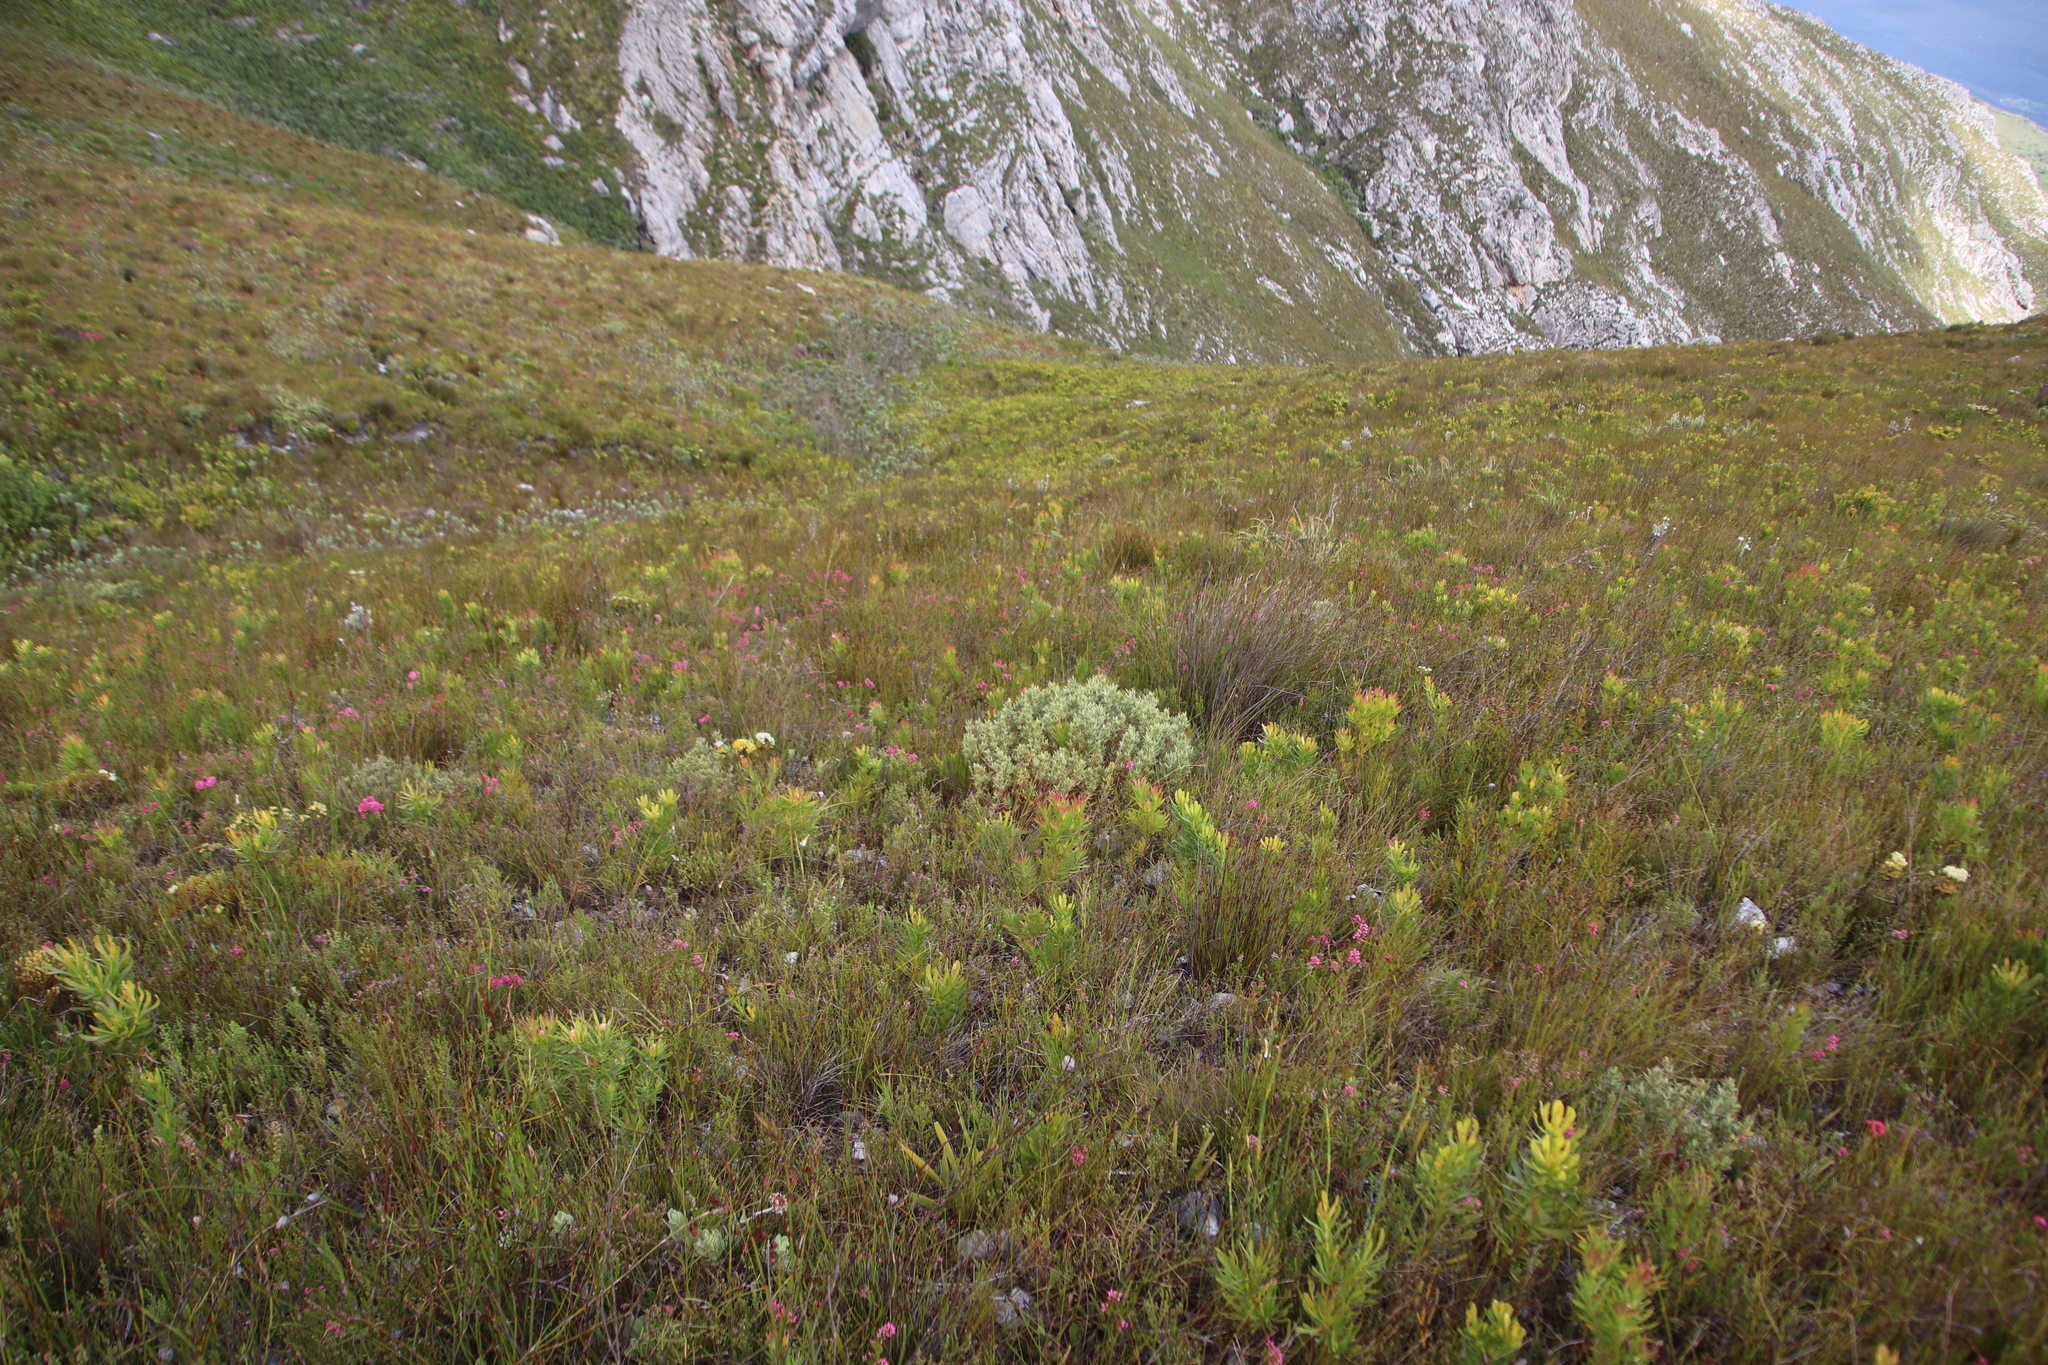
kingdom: Plantae
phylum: Tracheophyta
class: Magnoliopsida
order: Cornales
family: Grubbiaceae
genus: Grubbia
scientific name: Grubbia tomentosa
